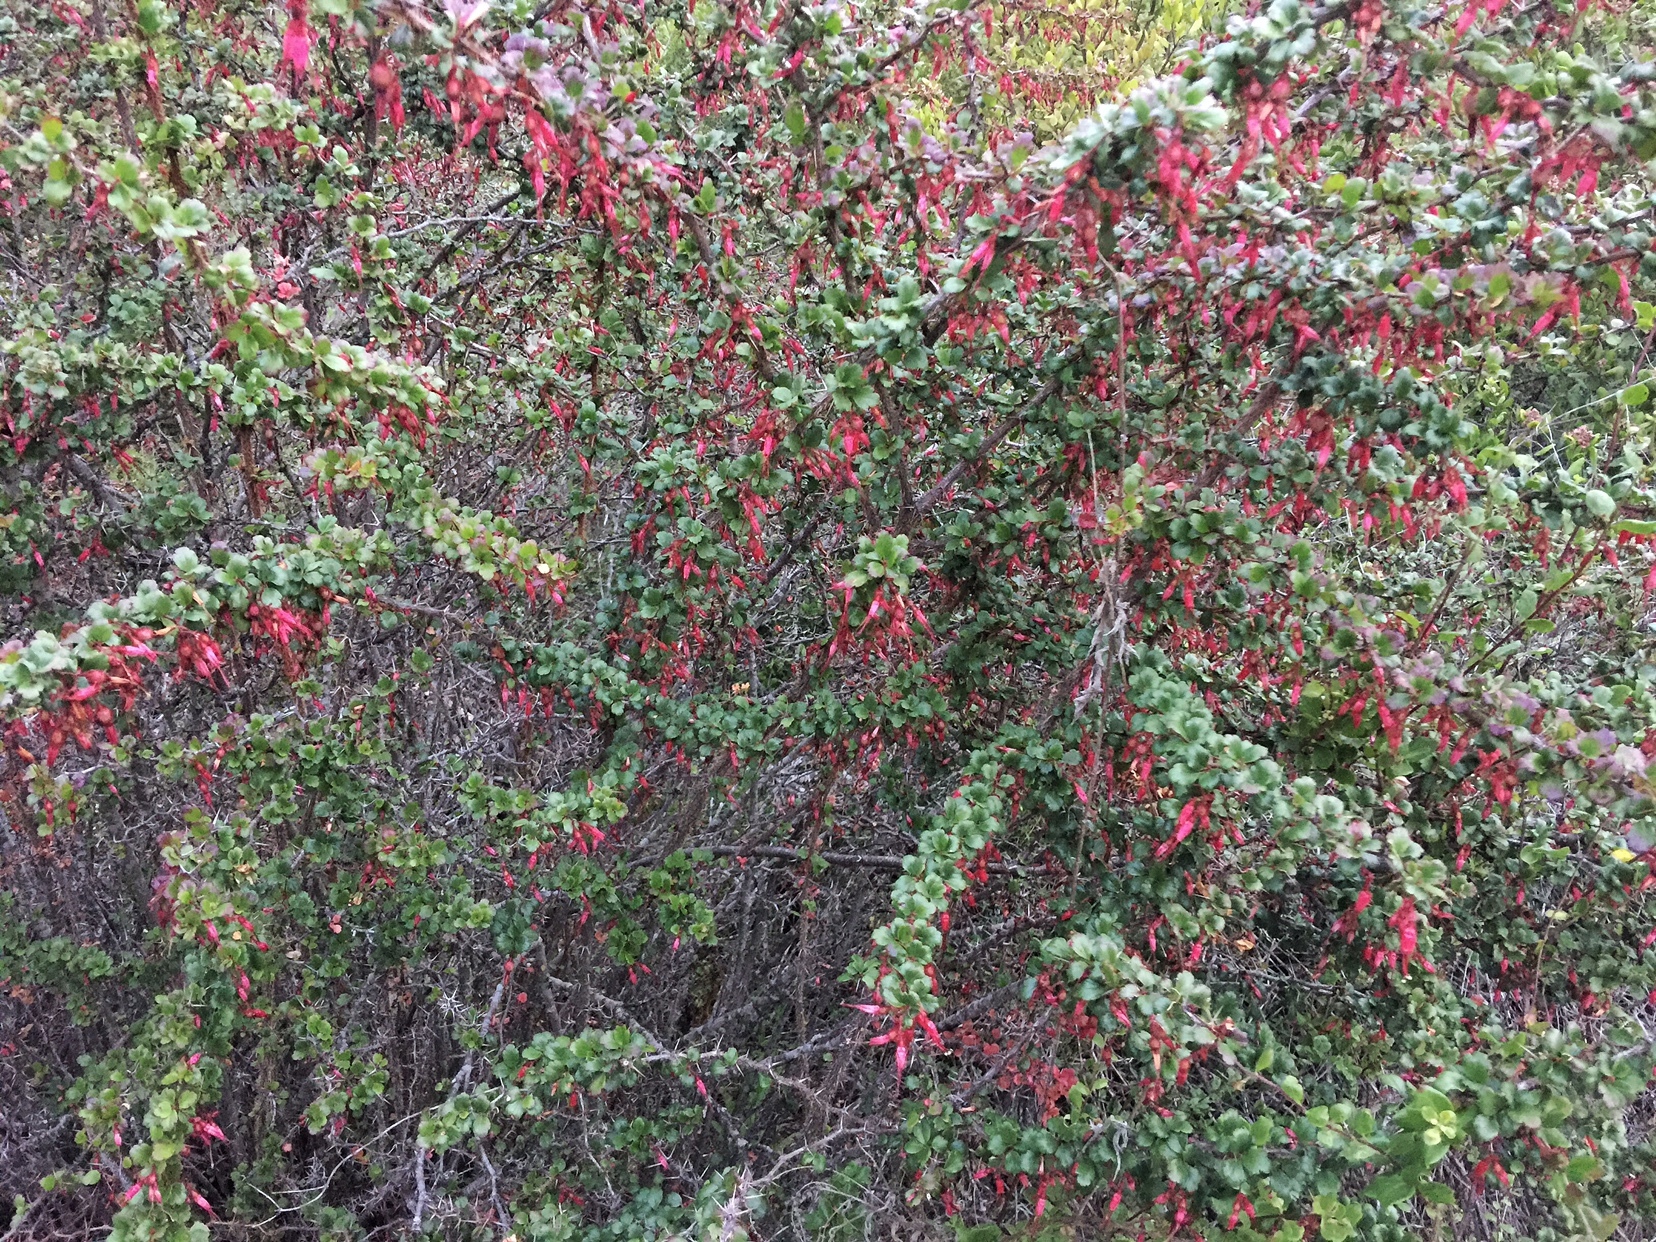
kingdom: Plantae
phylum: Tracheophyta
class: Magnoliopsida
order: Saxifragales
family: Grossulariaceae
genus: Ribes
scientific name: Ribes speciosum
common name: Fuchsia-flower gooseberry
